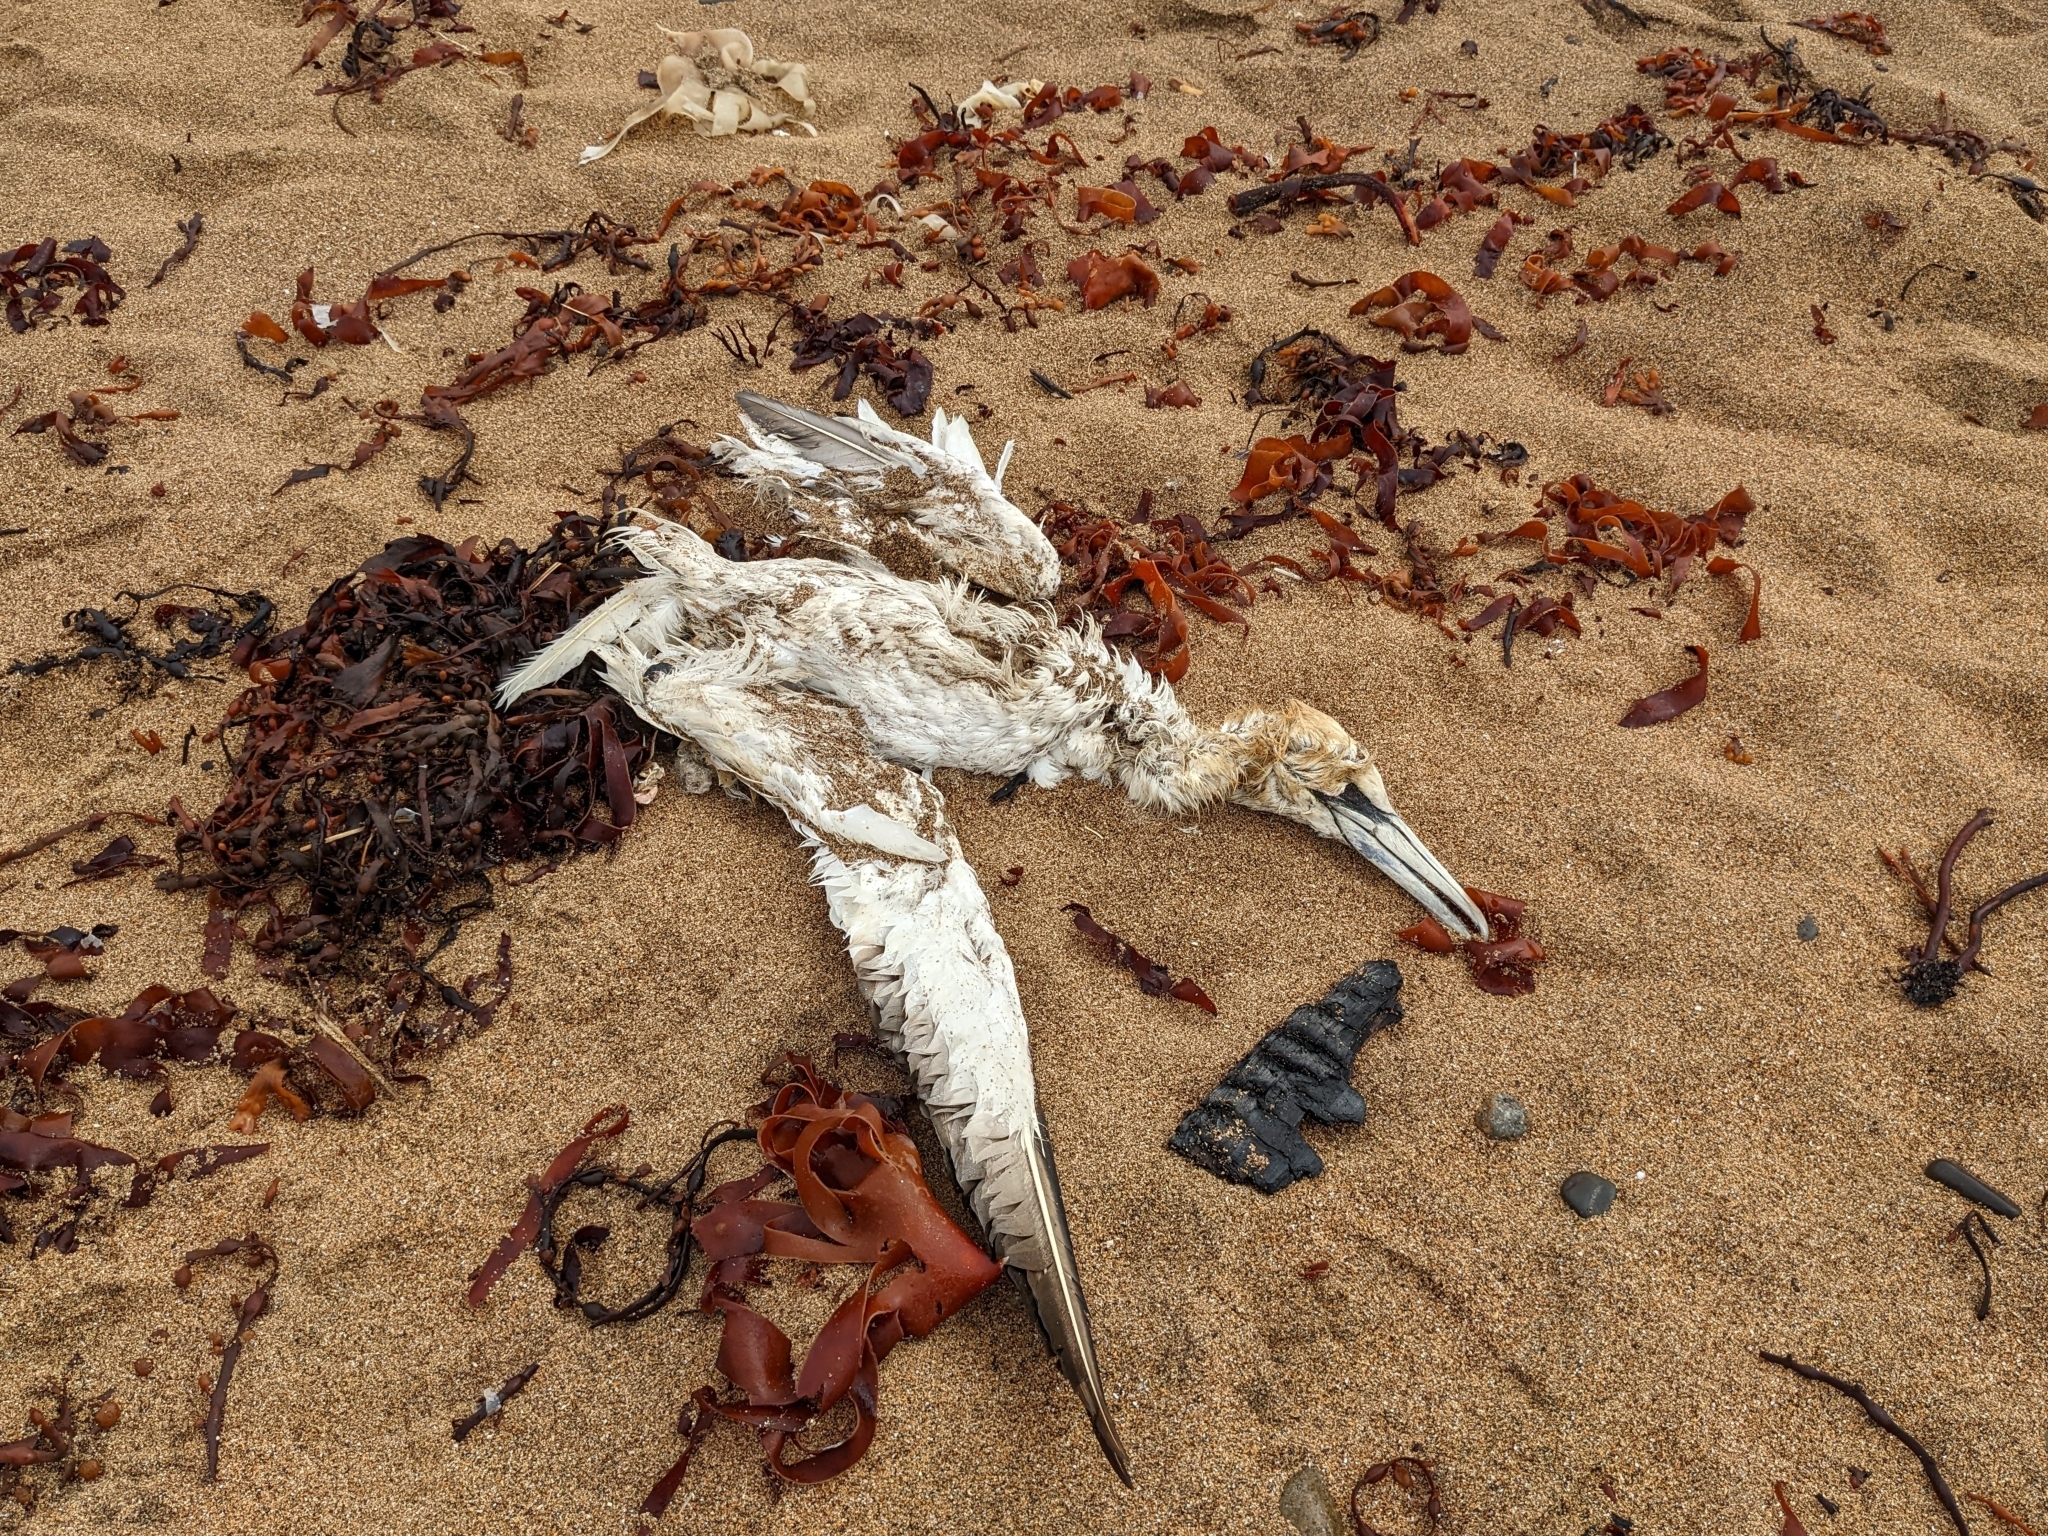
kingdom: Animalia
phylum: Chordata
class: Aves
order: Suliformes
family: Sulidae
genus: Morus
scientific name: Morus bassanus
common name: Northern gannet
